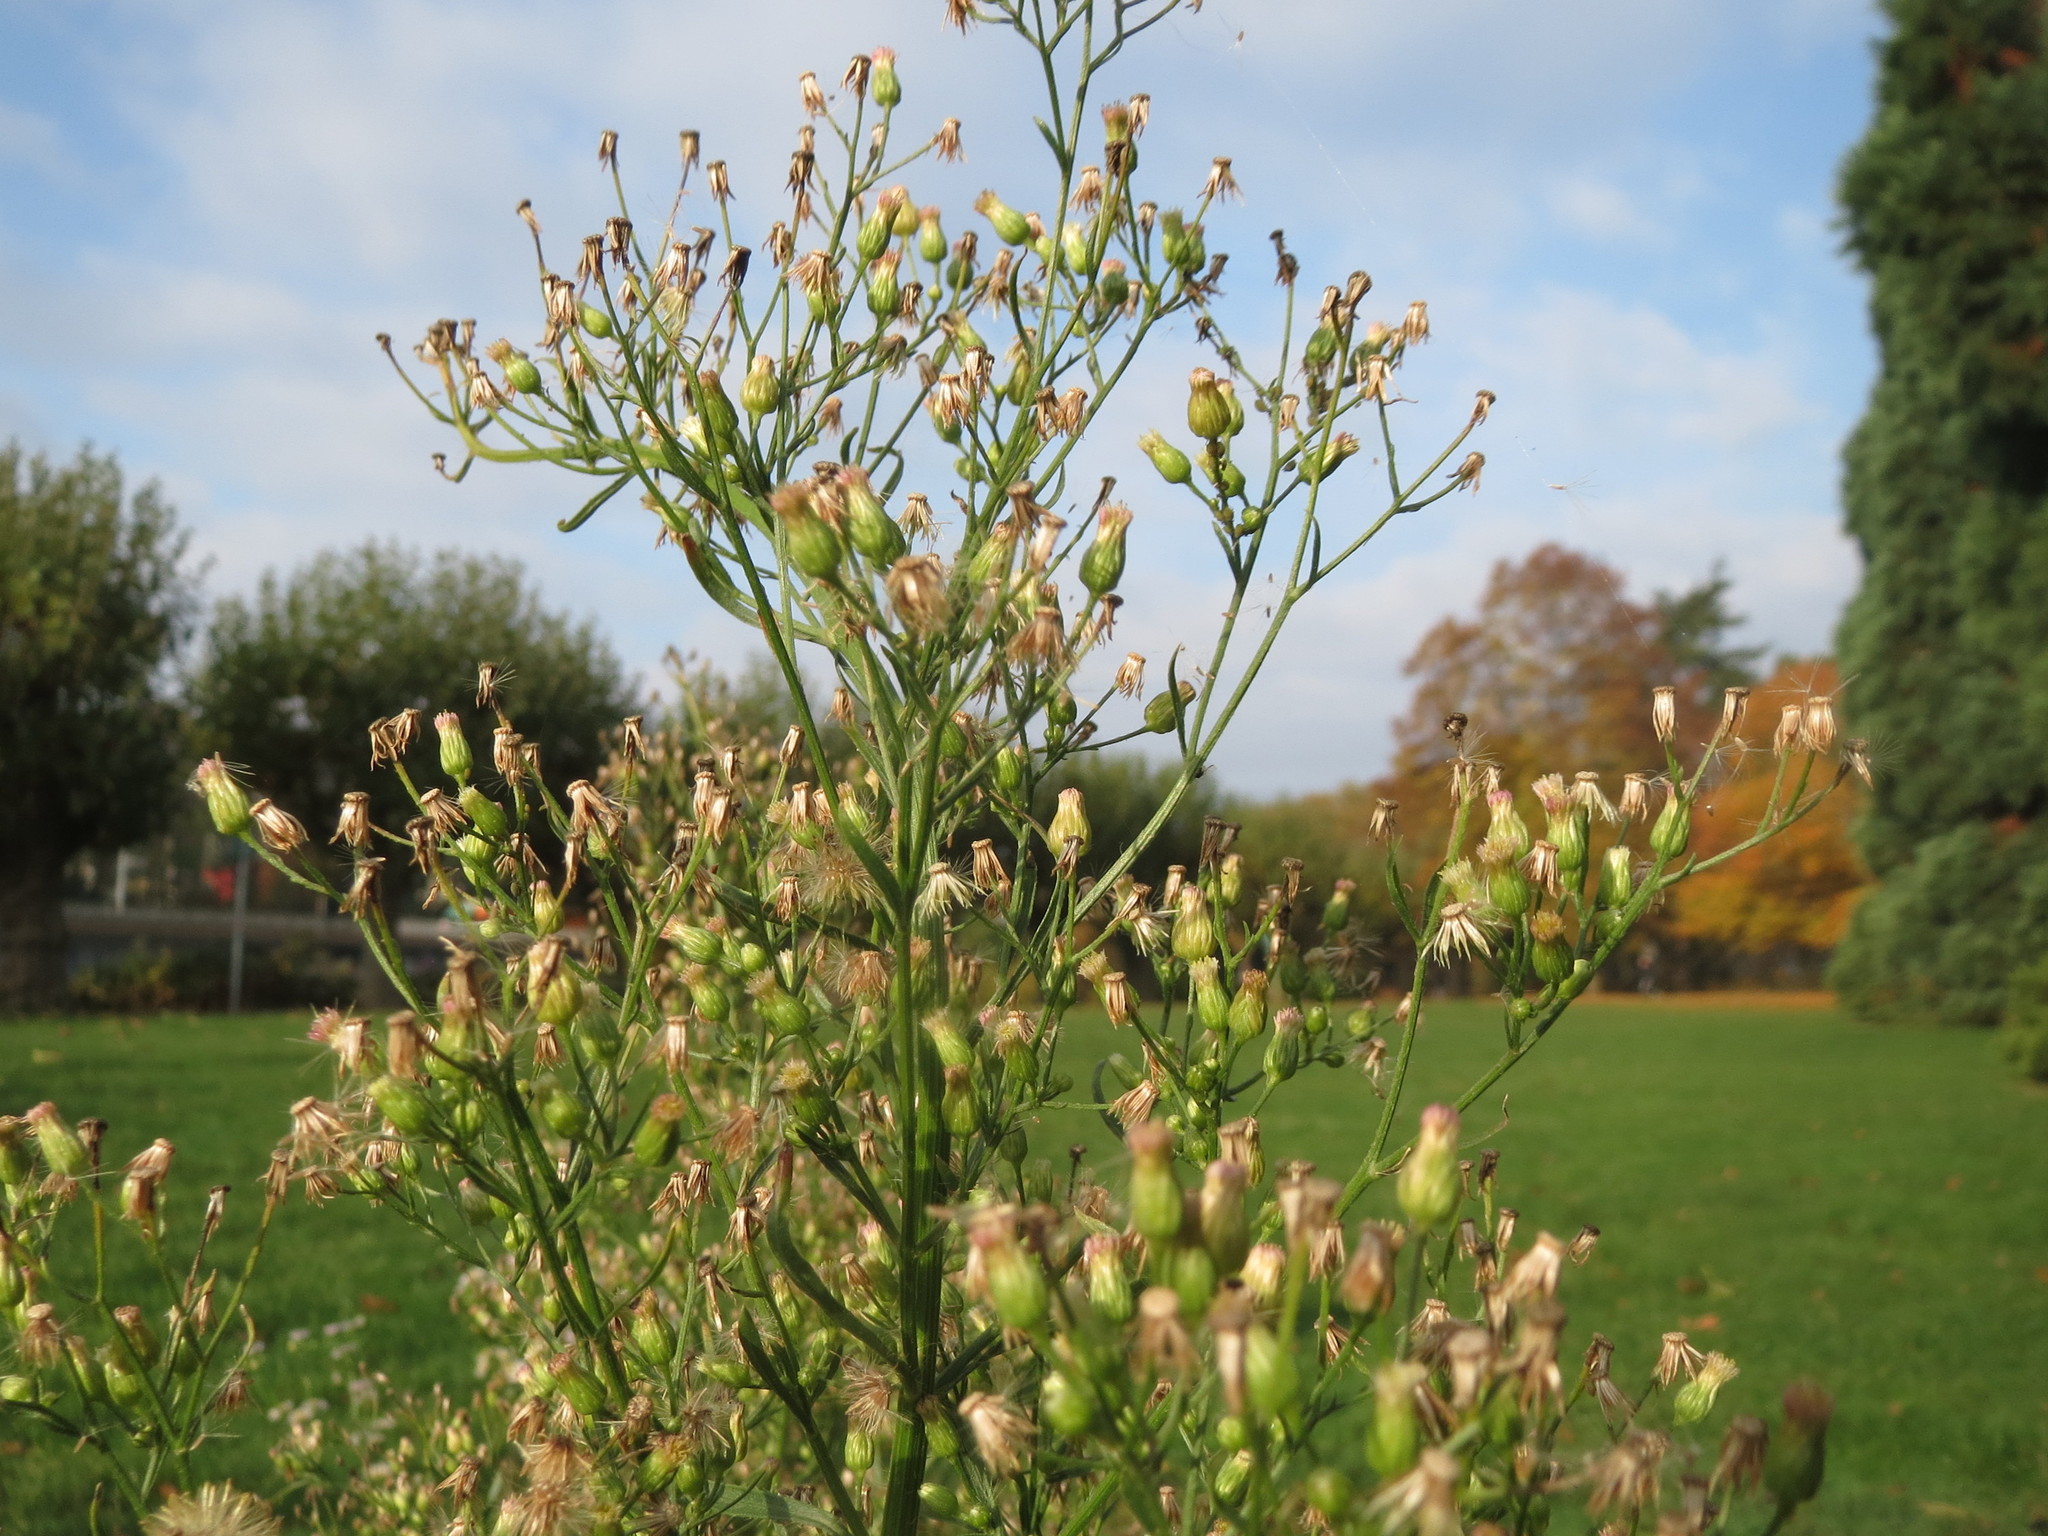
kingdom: Plantae
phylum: Tracheophyta
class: Magnoliopsida
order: Asterales
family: Asteraceae
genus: Erigeron
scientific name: Erigeron canadensis
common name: Canadian fleabane
